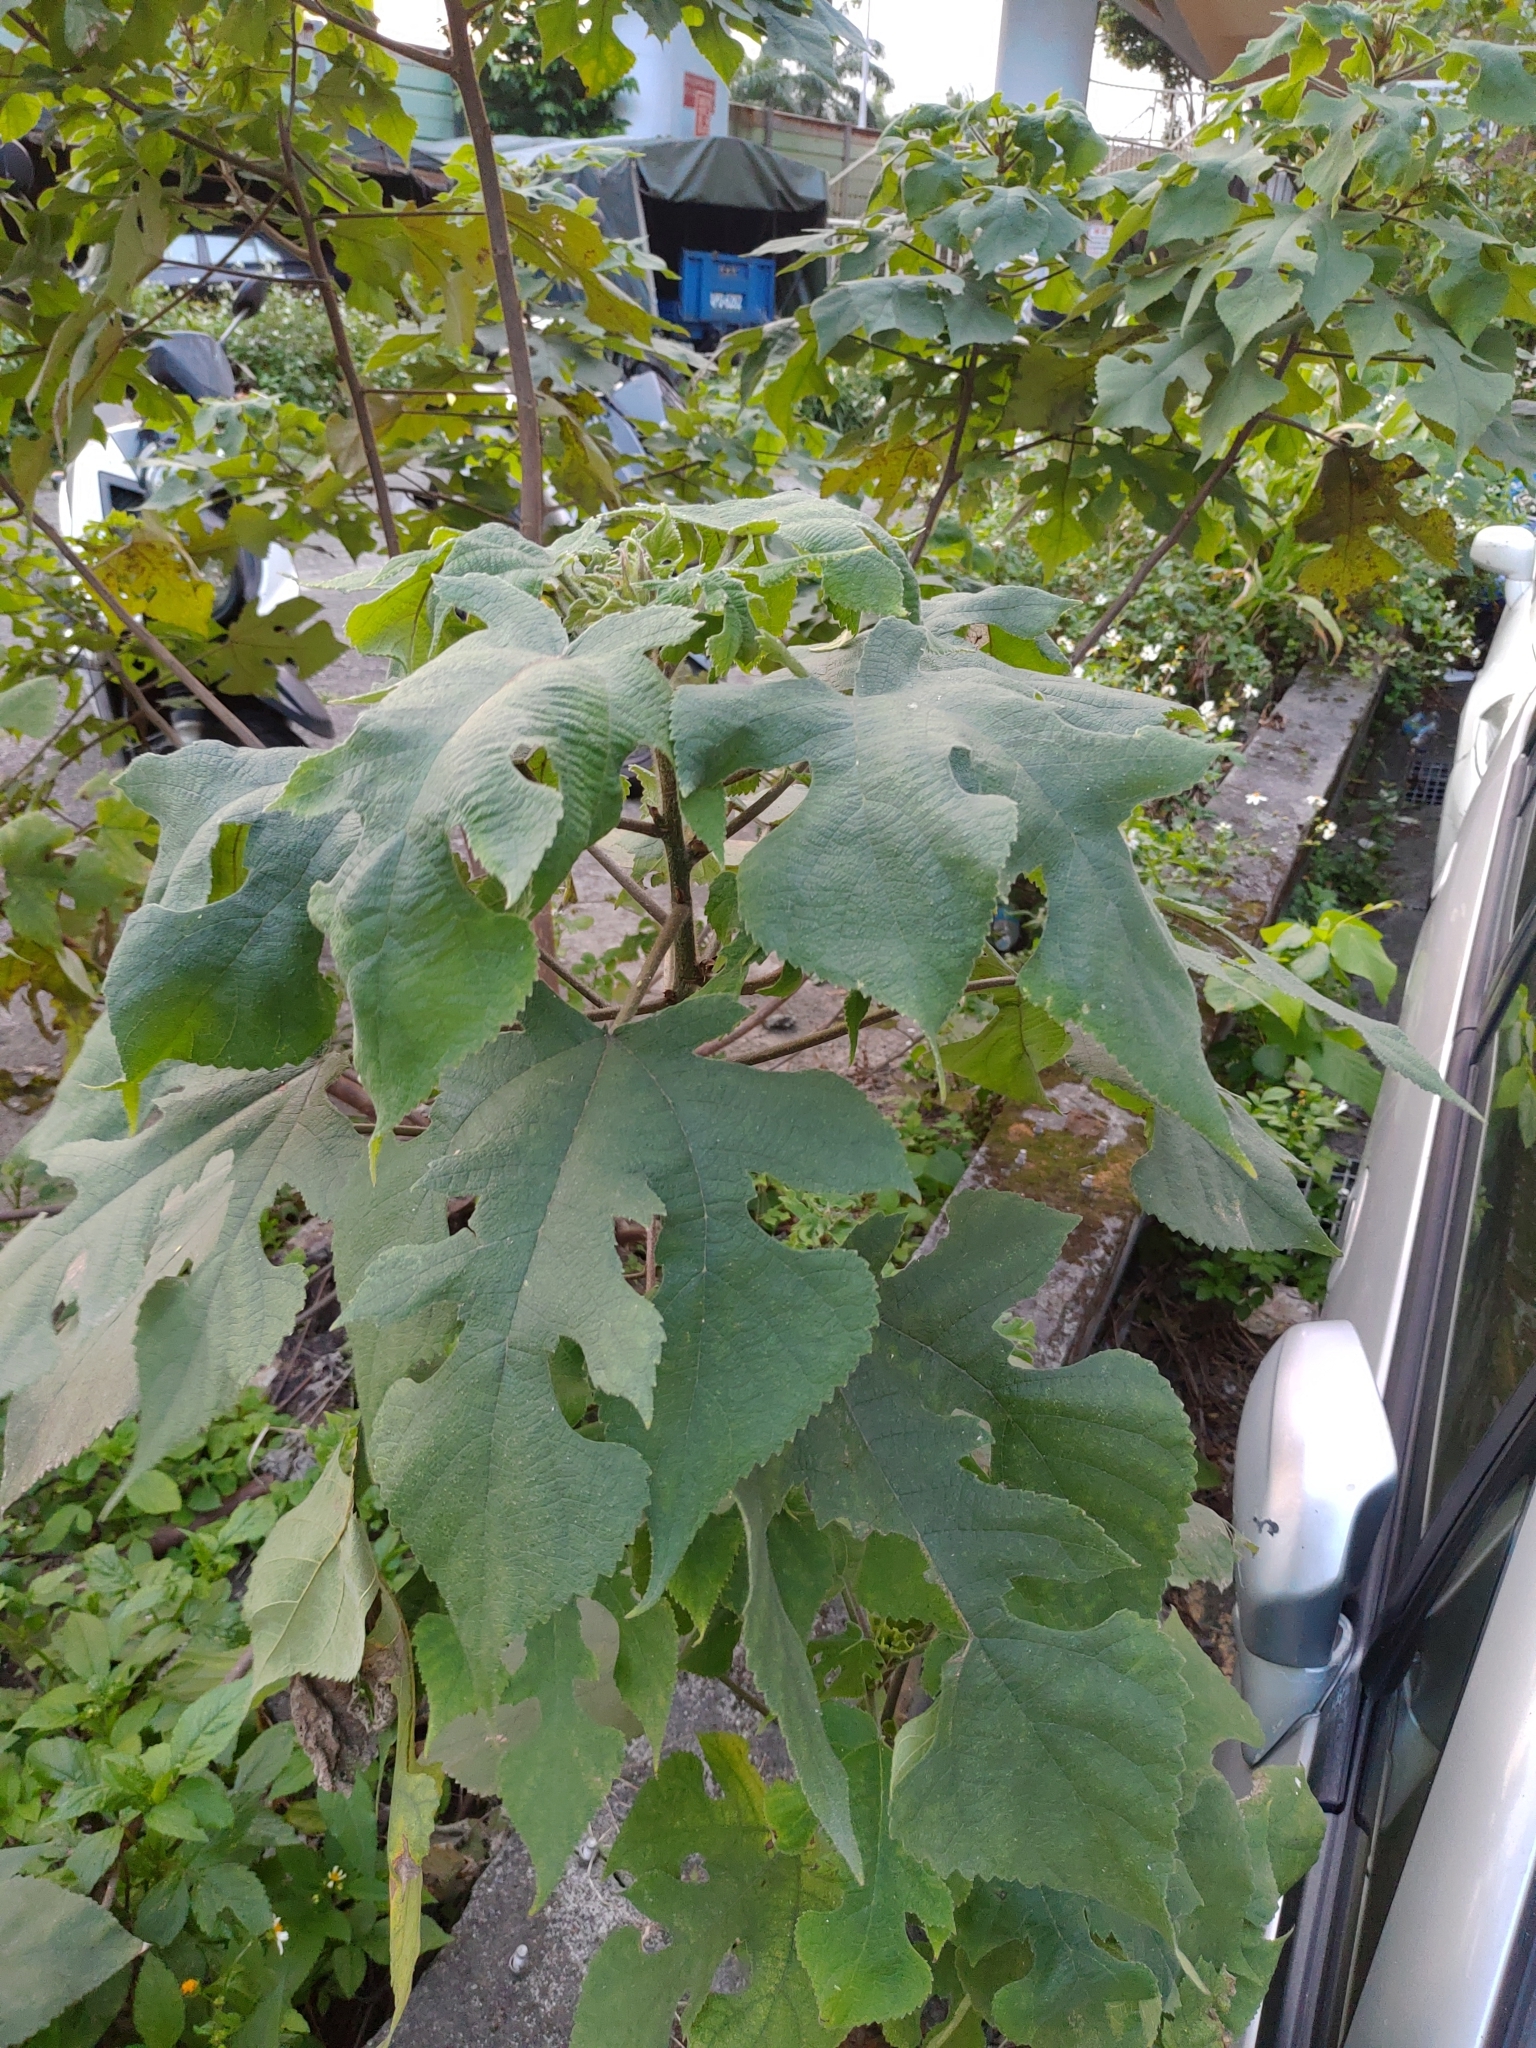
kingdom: Plantae
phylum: Tracheophyta
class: Magnoliopsida
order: Rosales
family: Moraceae
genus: Broussonetia
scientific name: Broussonetia papyrifera
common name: Paper mulberry
